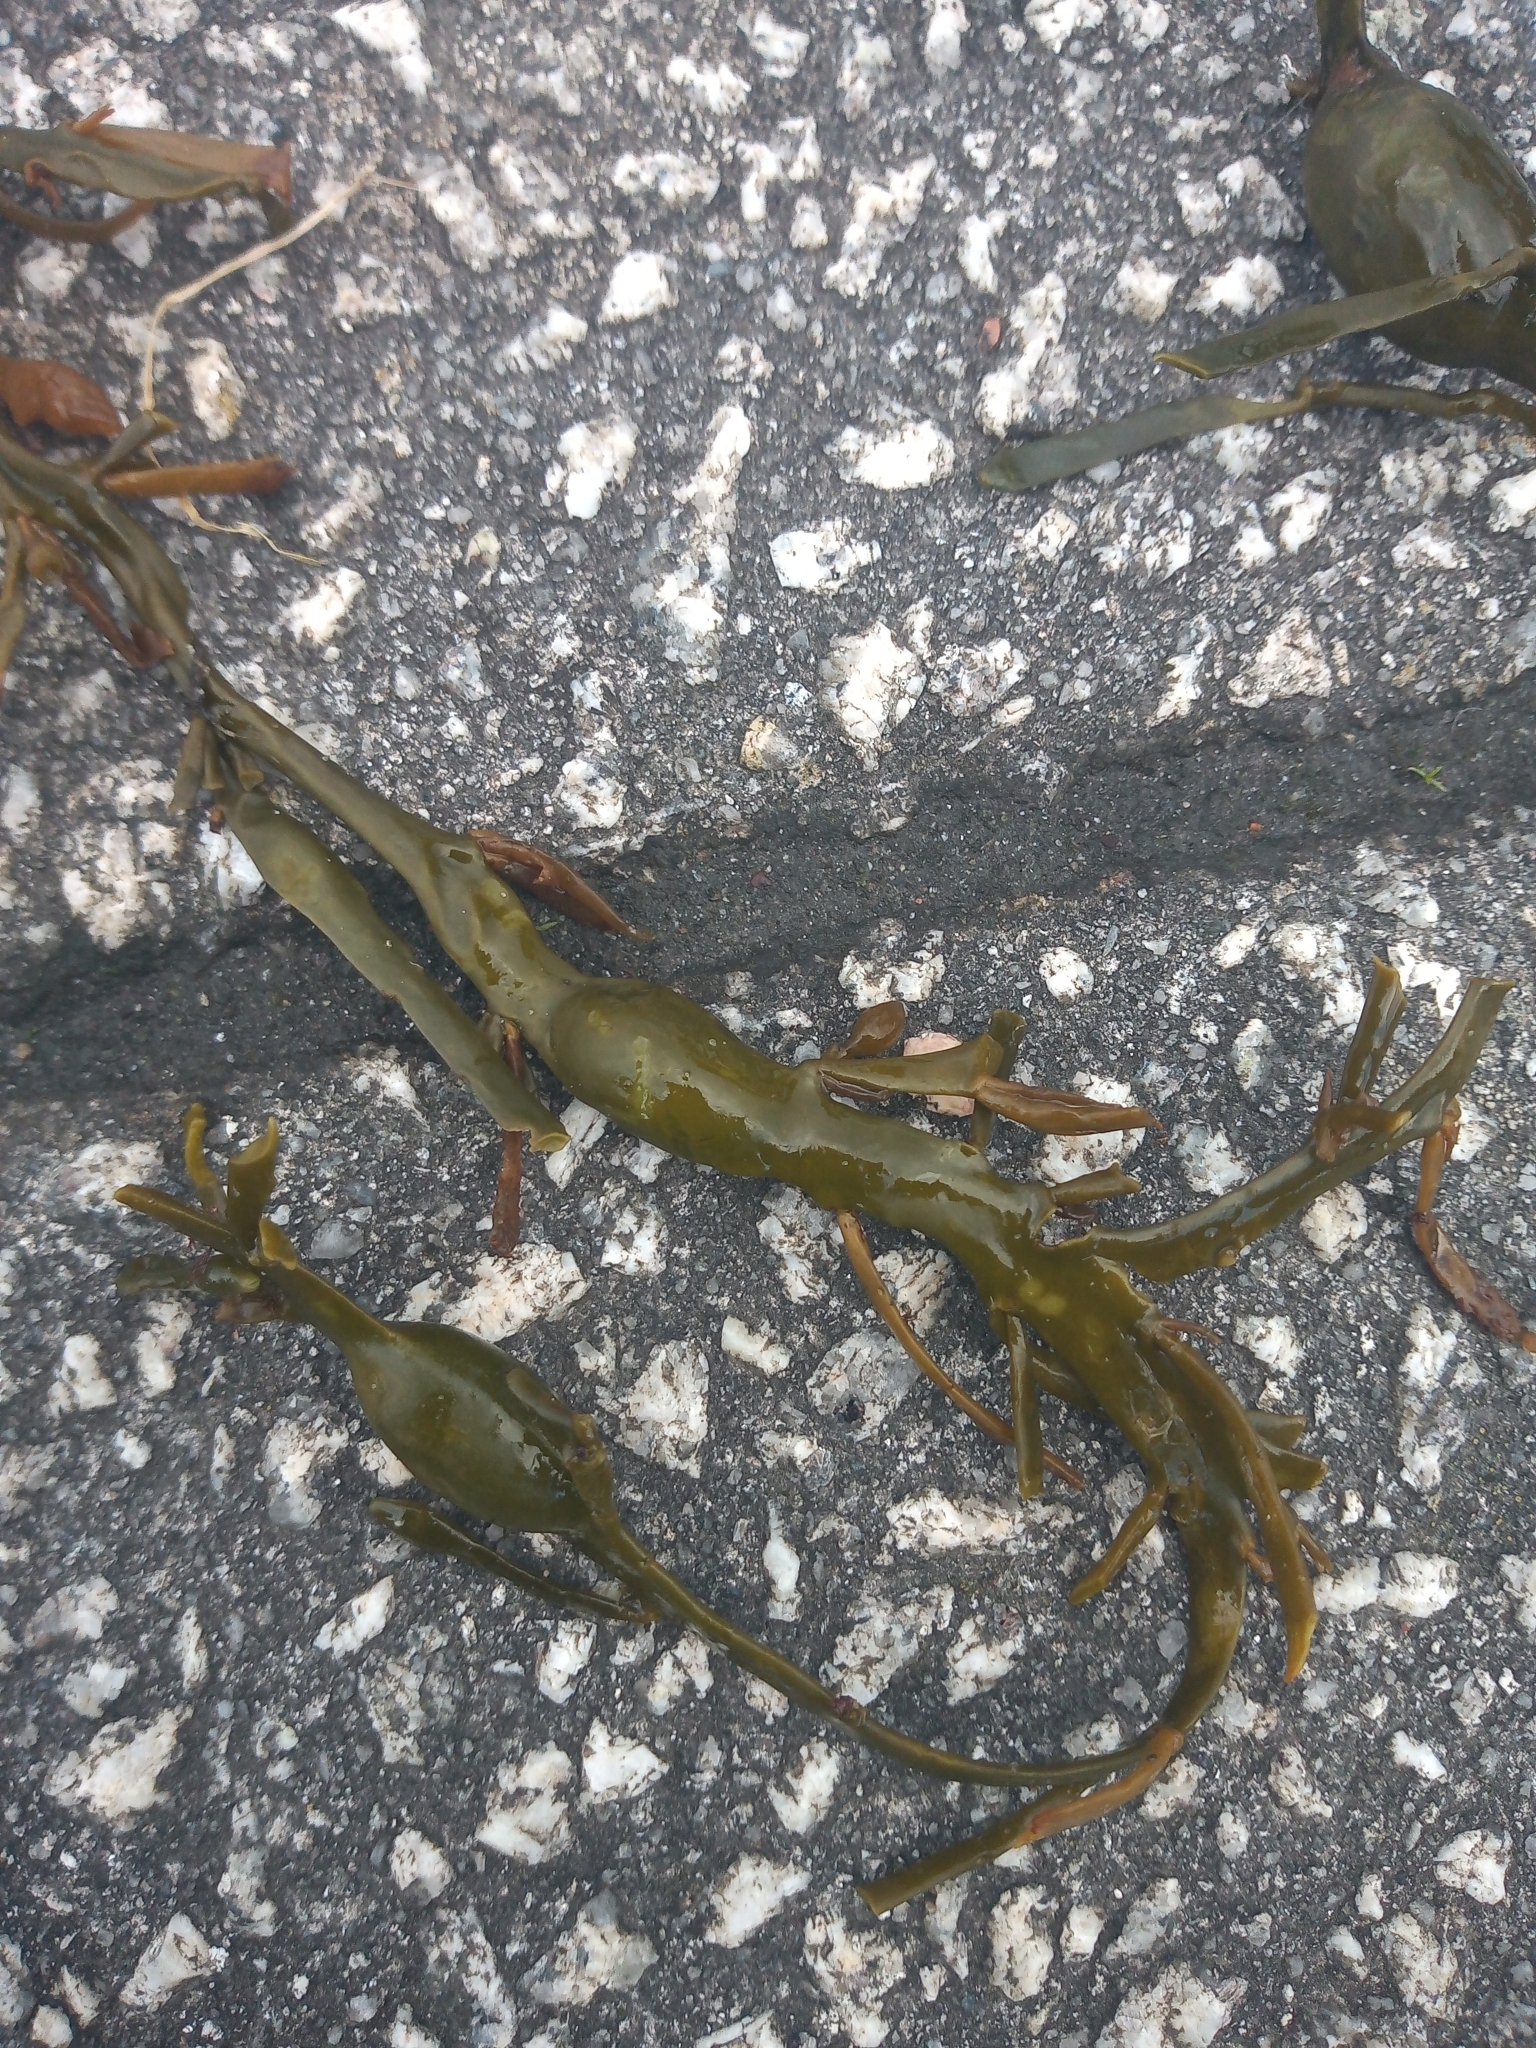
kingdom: Chromista
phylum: Ochrophyta
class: Phaeophyceae
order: Fucales
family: Fucaceae
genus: Ascophyllum
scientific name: Ascophyllum nodosum
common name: Knotted wrack
